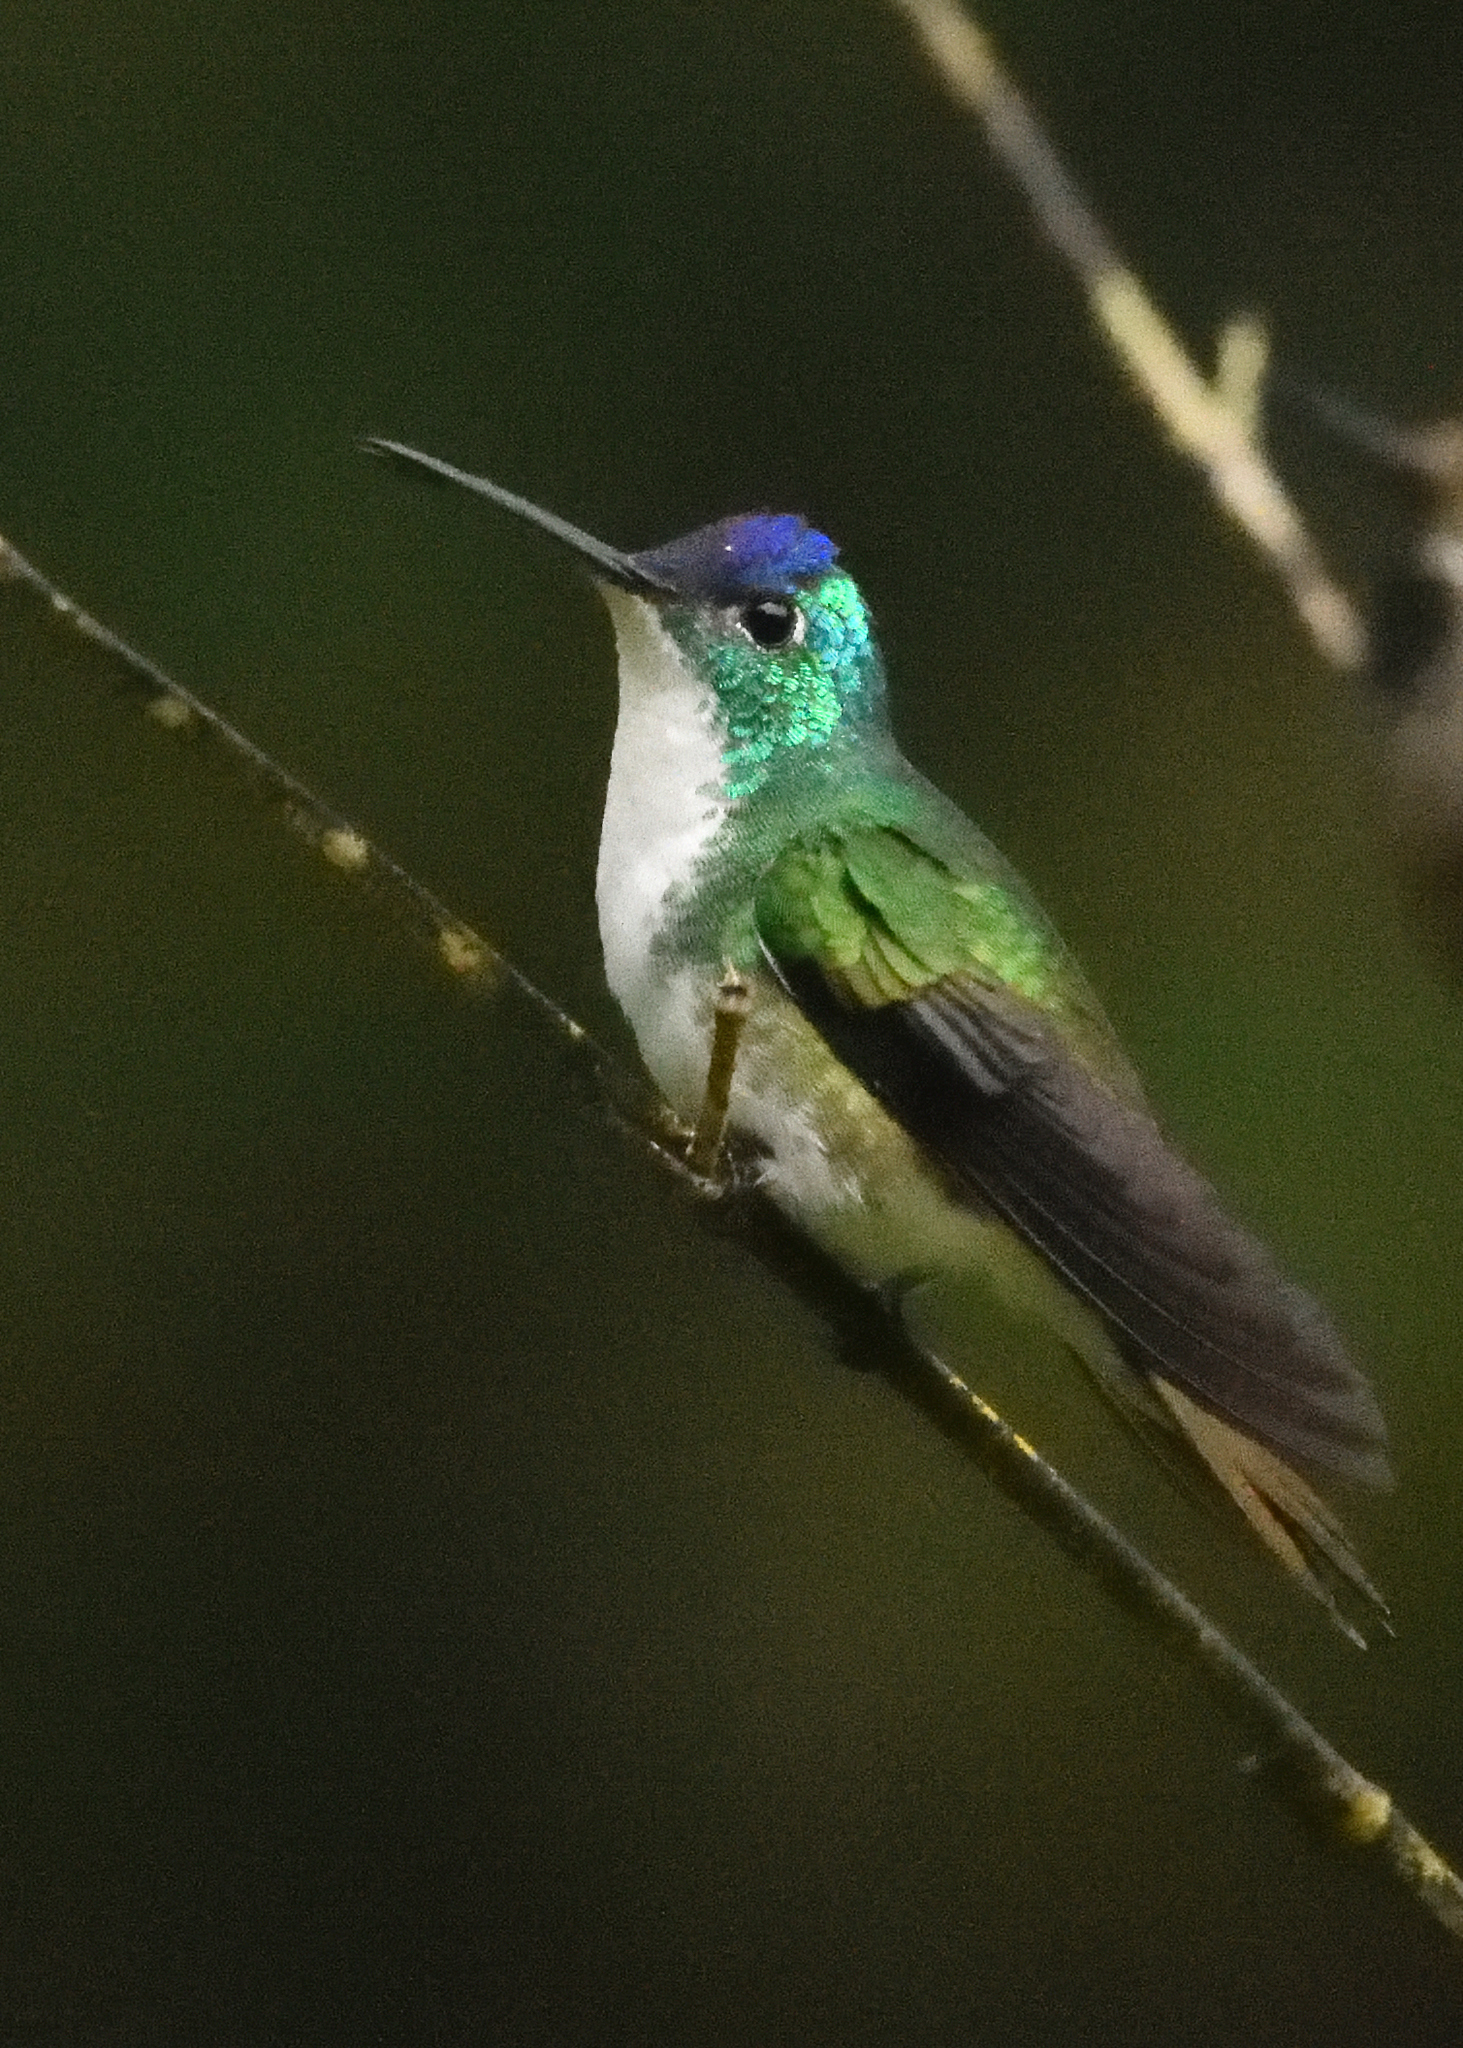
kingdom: Animalia
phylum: Chordata
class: Aves
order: Apodiformes
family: Trochilidae
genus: Uranomitra
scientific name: Uranomitra franciae
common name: Andean emerald
